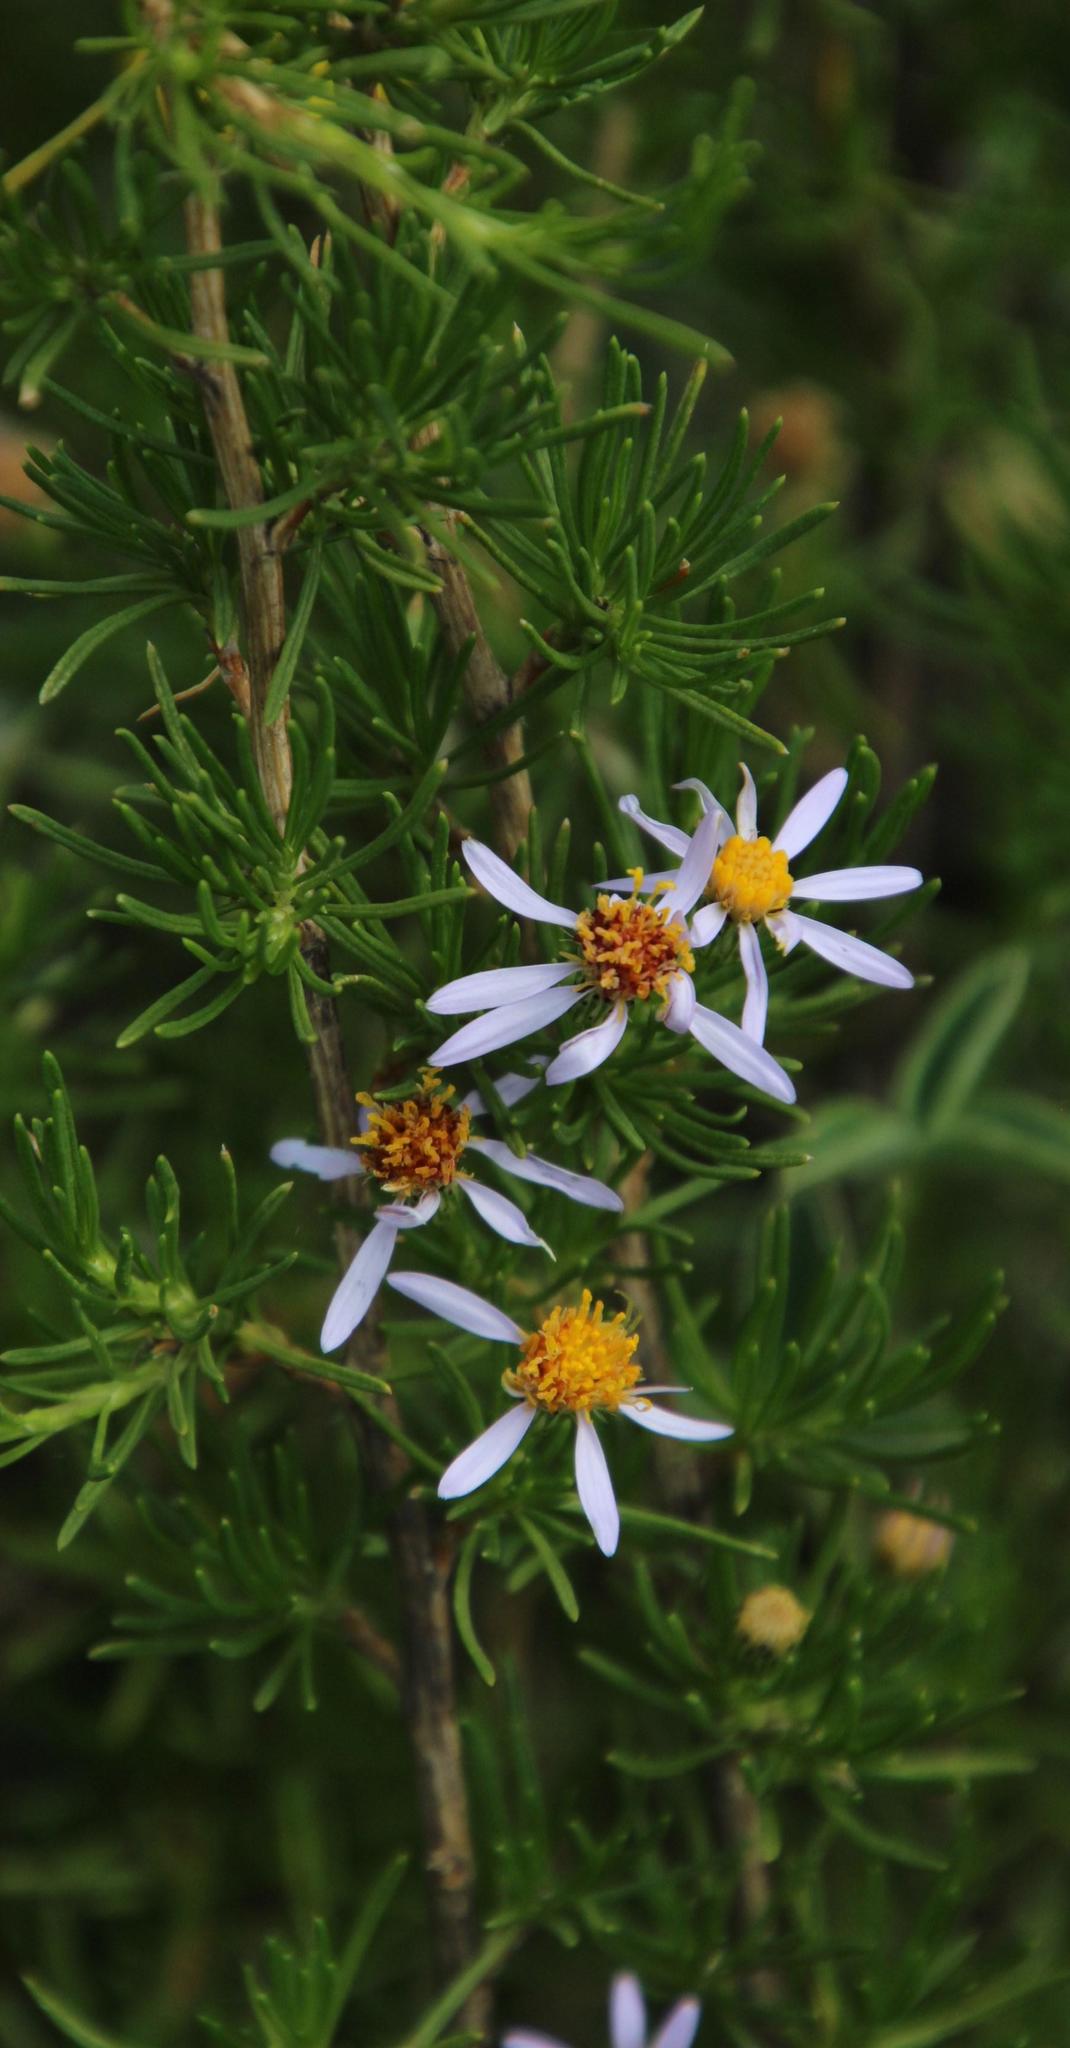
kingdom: Plantae
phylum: Tracheophyta
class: Magnoliopsida
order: Asterales
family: Asteraceae
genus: Felicia
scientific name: Felicia filifolia
